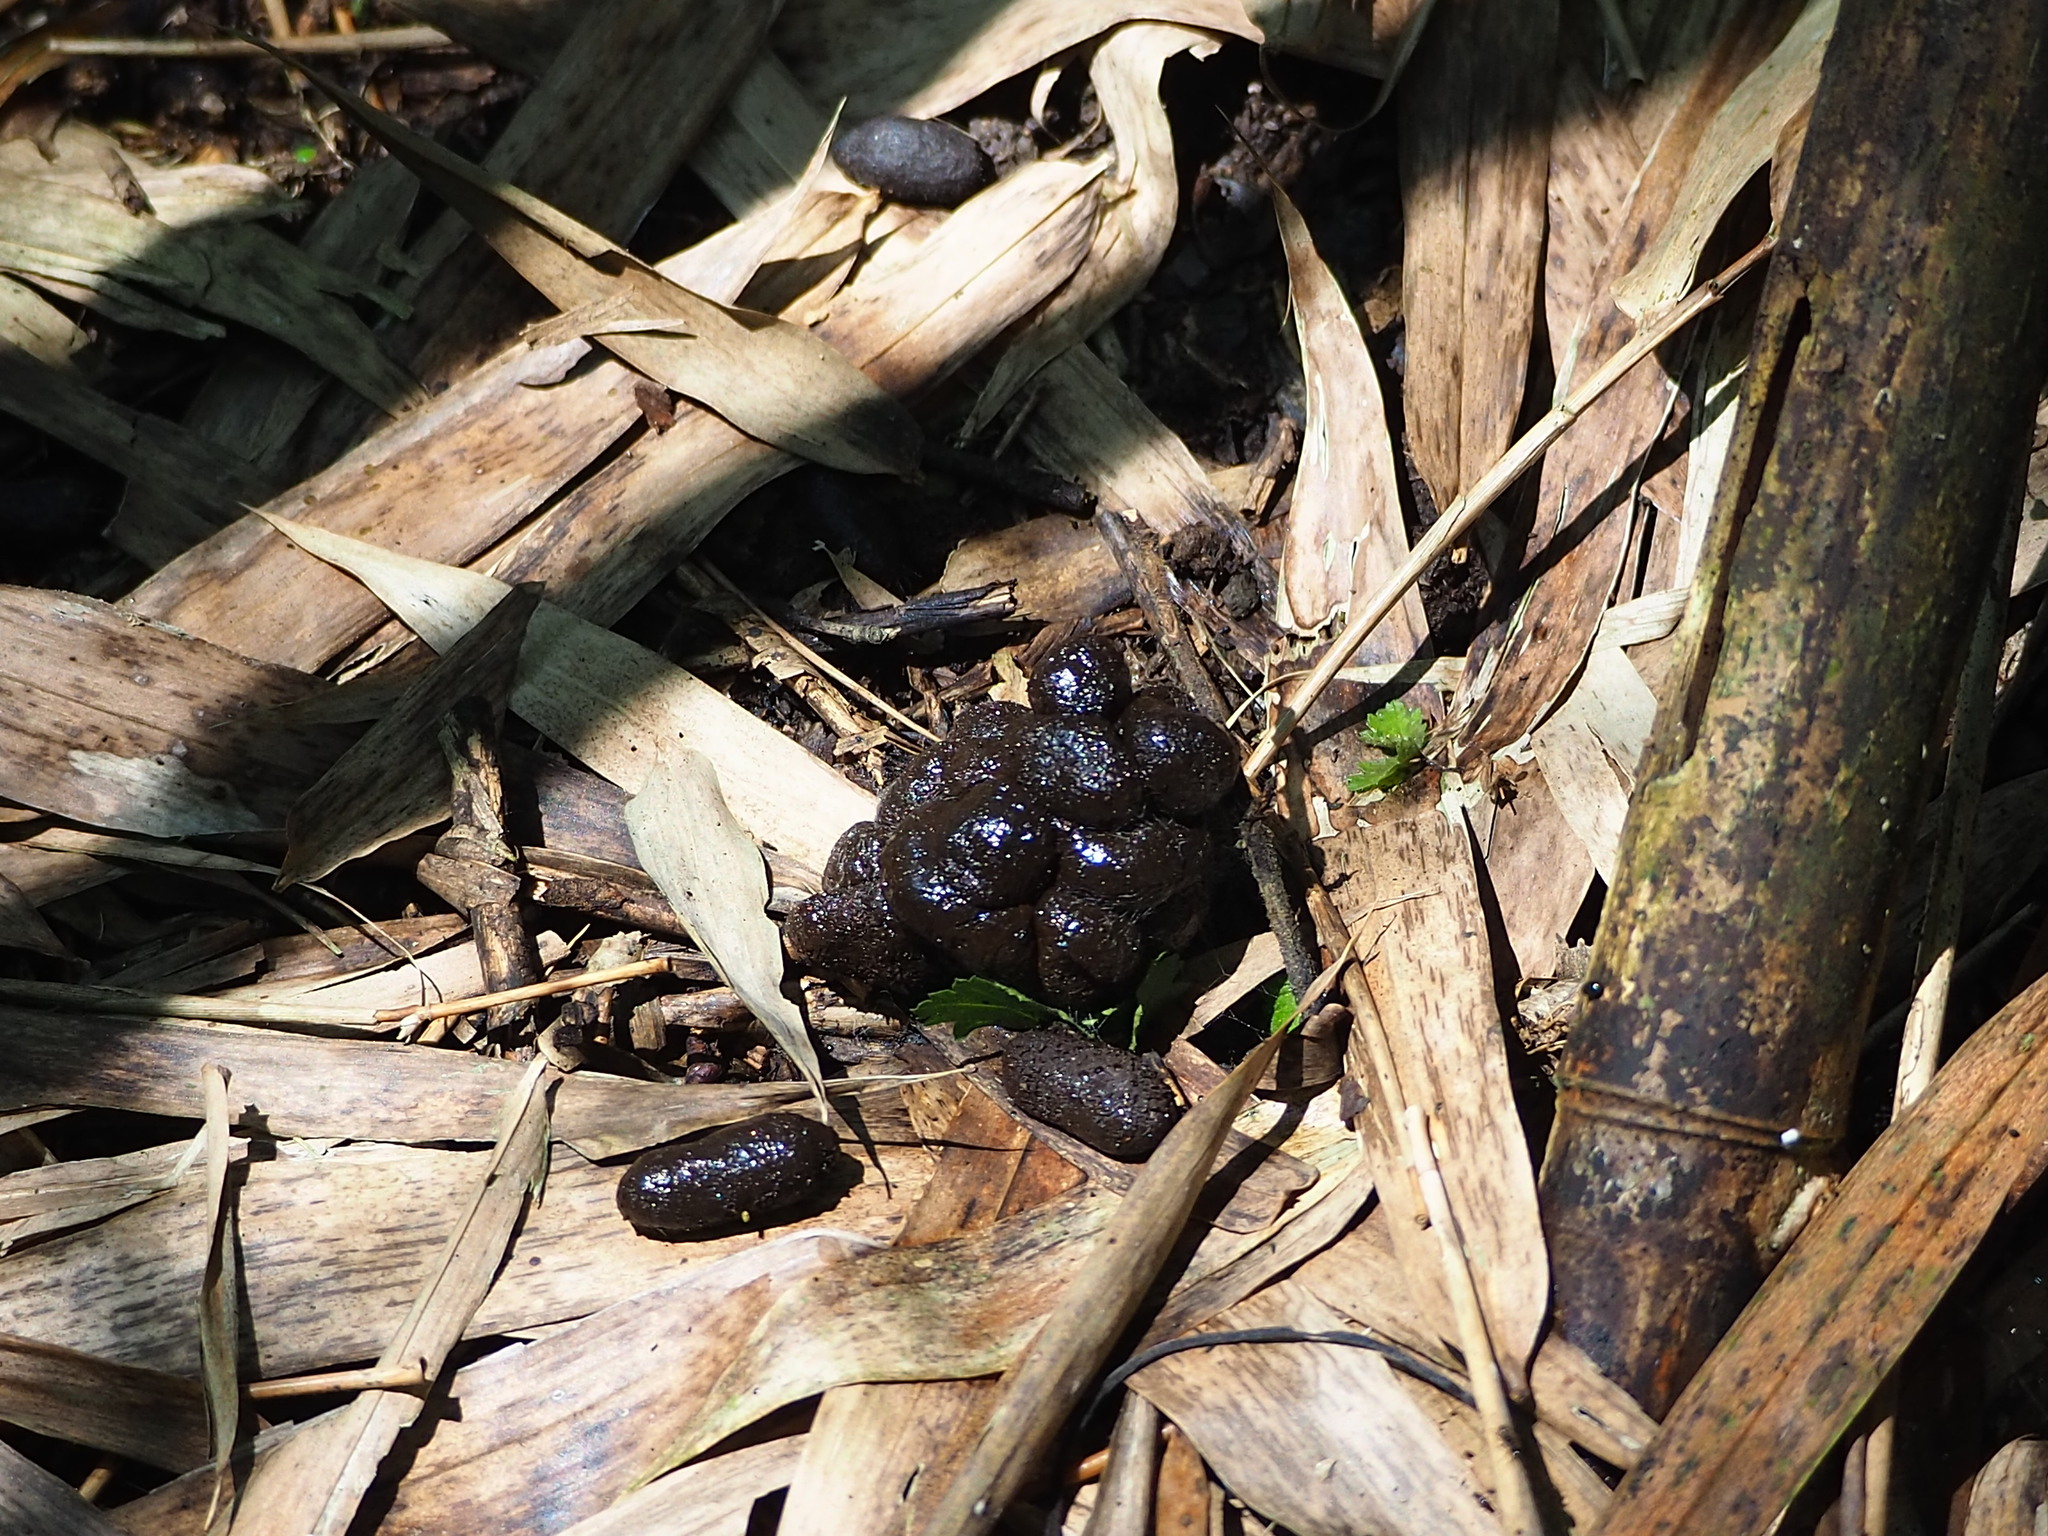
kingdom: Animalia
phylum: Chordata
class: Mammalia
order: Artiodactyla
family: Cervidae
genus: Muntiacus
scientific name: Muntiacus reevesi
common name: Reeves' muntjac
